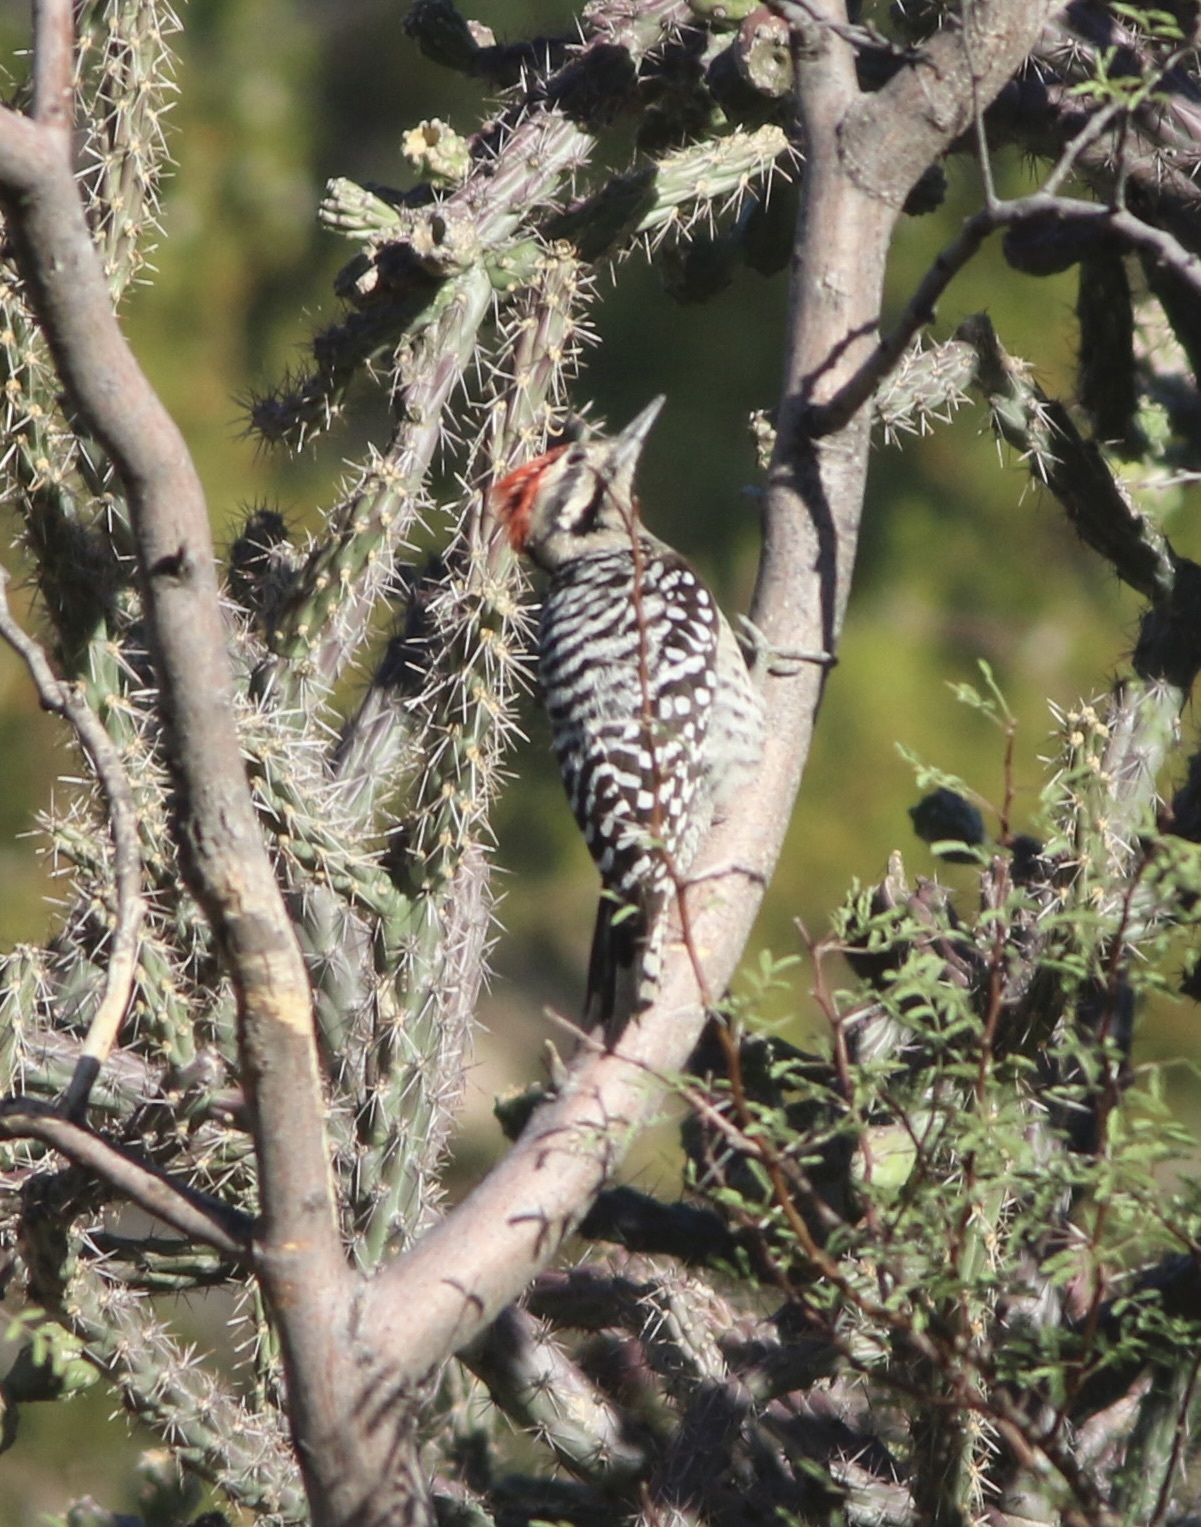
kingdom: Animalia
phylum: Chordata
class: Aves
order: Piciformes
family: Picidae
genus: Dryobates
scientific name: Dryobates scalaris
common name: Ladder-backed woodpecker
